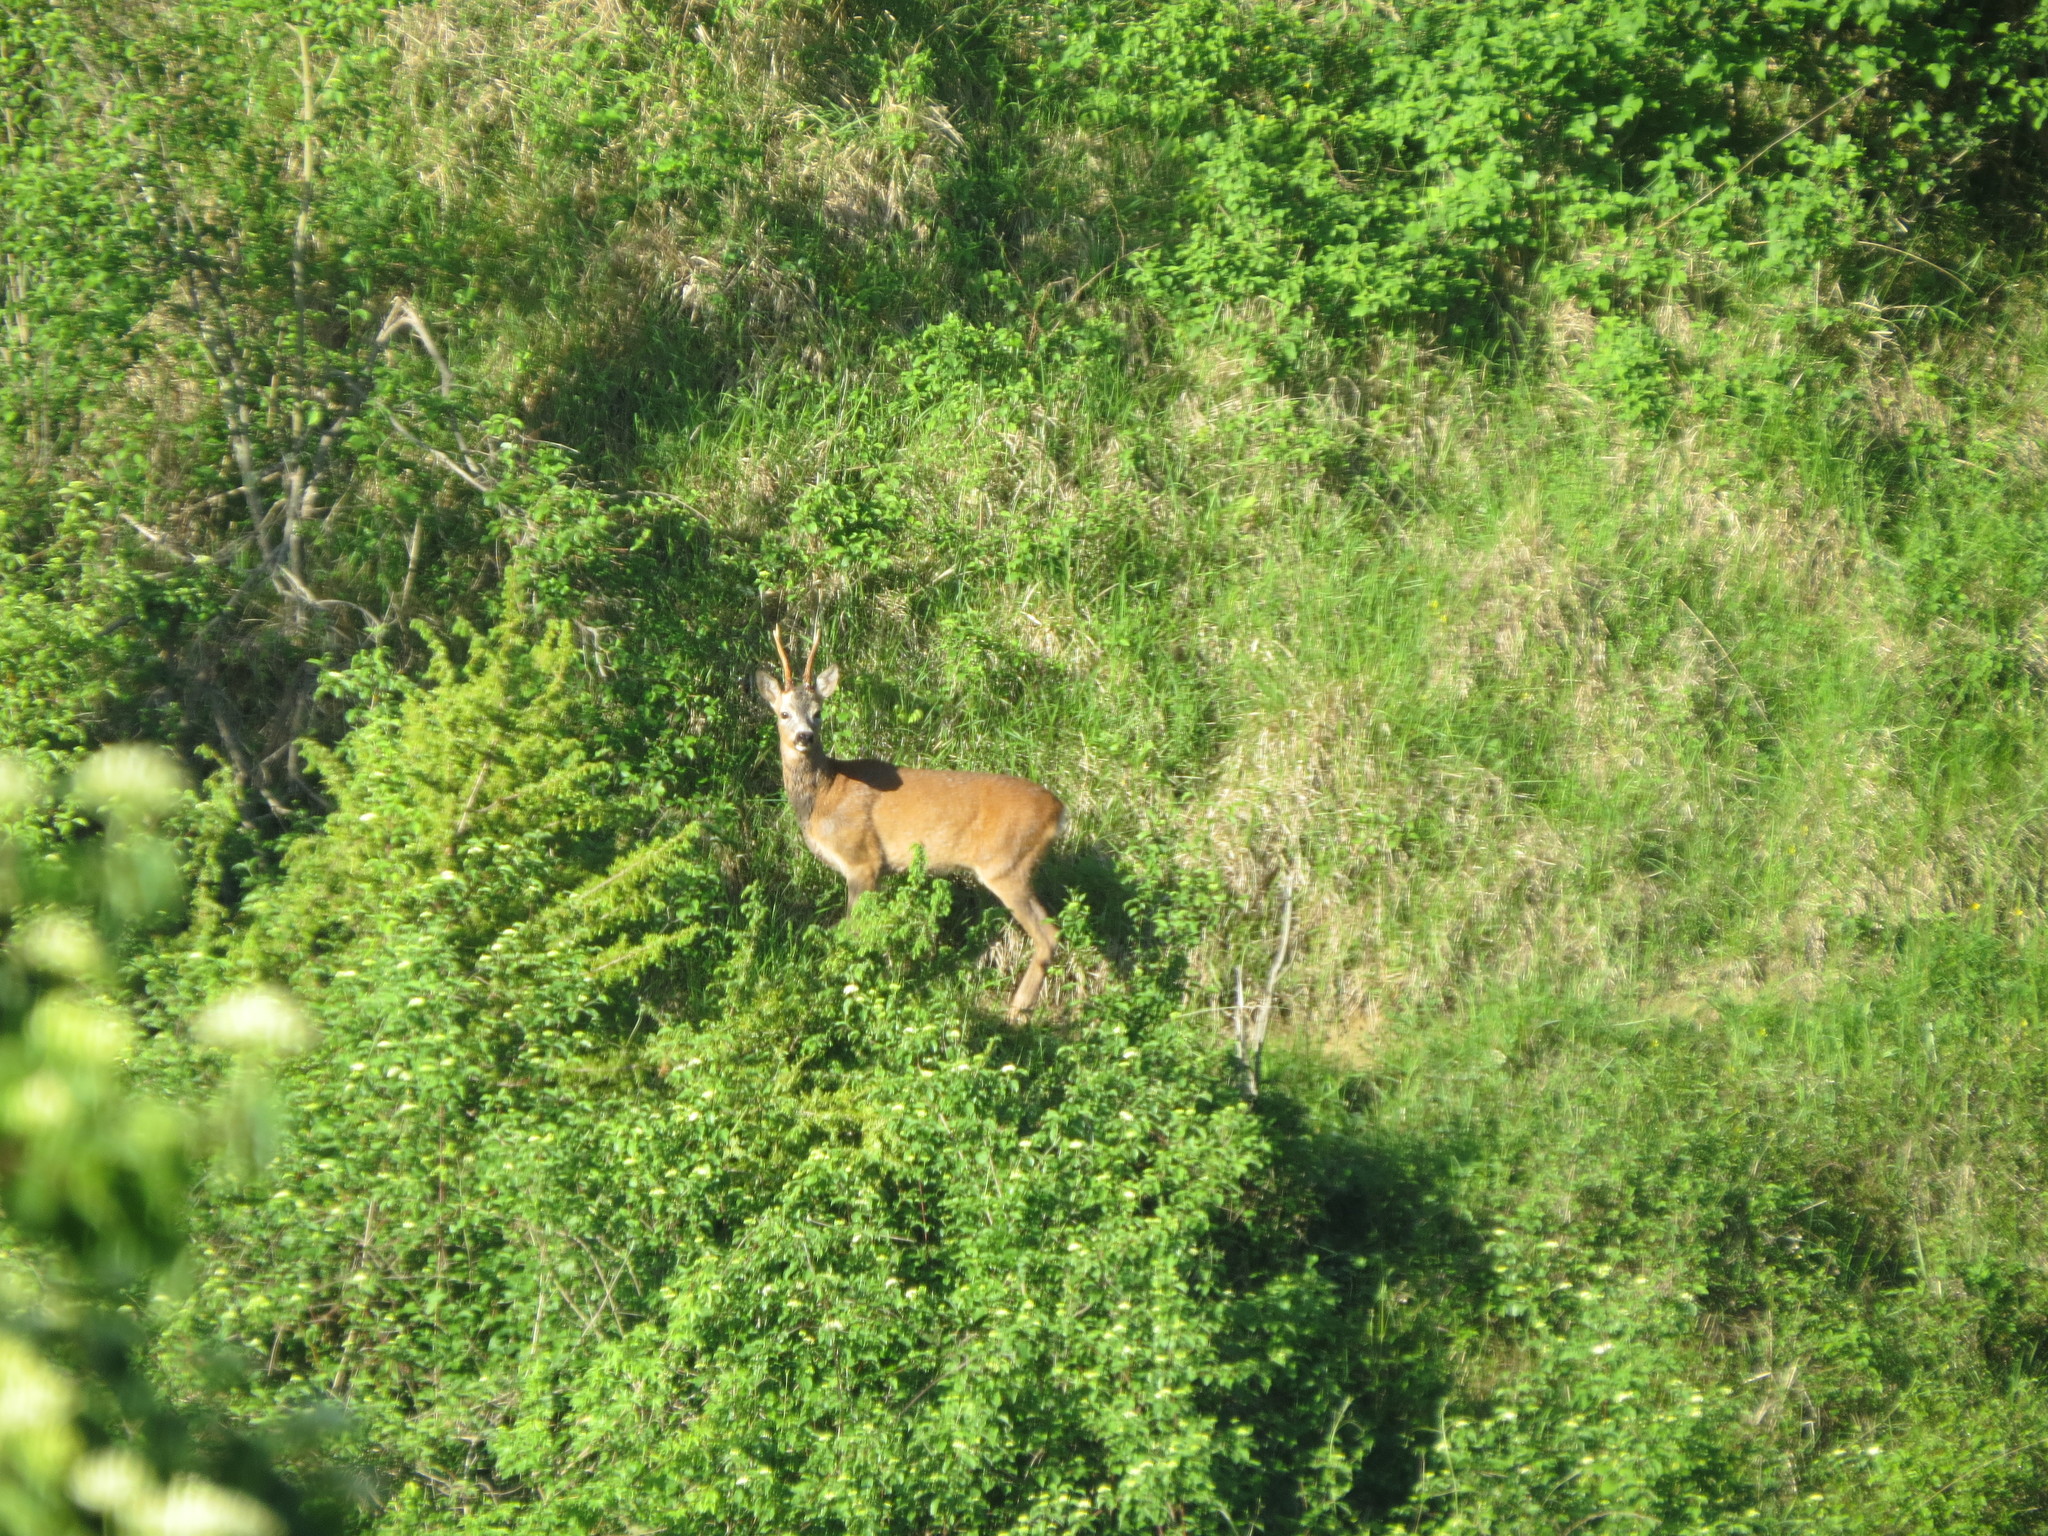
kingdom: Animalia
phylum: Chordata
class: Mammalia
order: Artiodactyla
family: Cervidae
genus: Capreolus
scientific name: Capreolus capreolus
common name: Western roe deer
